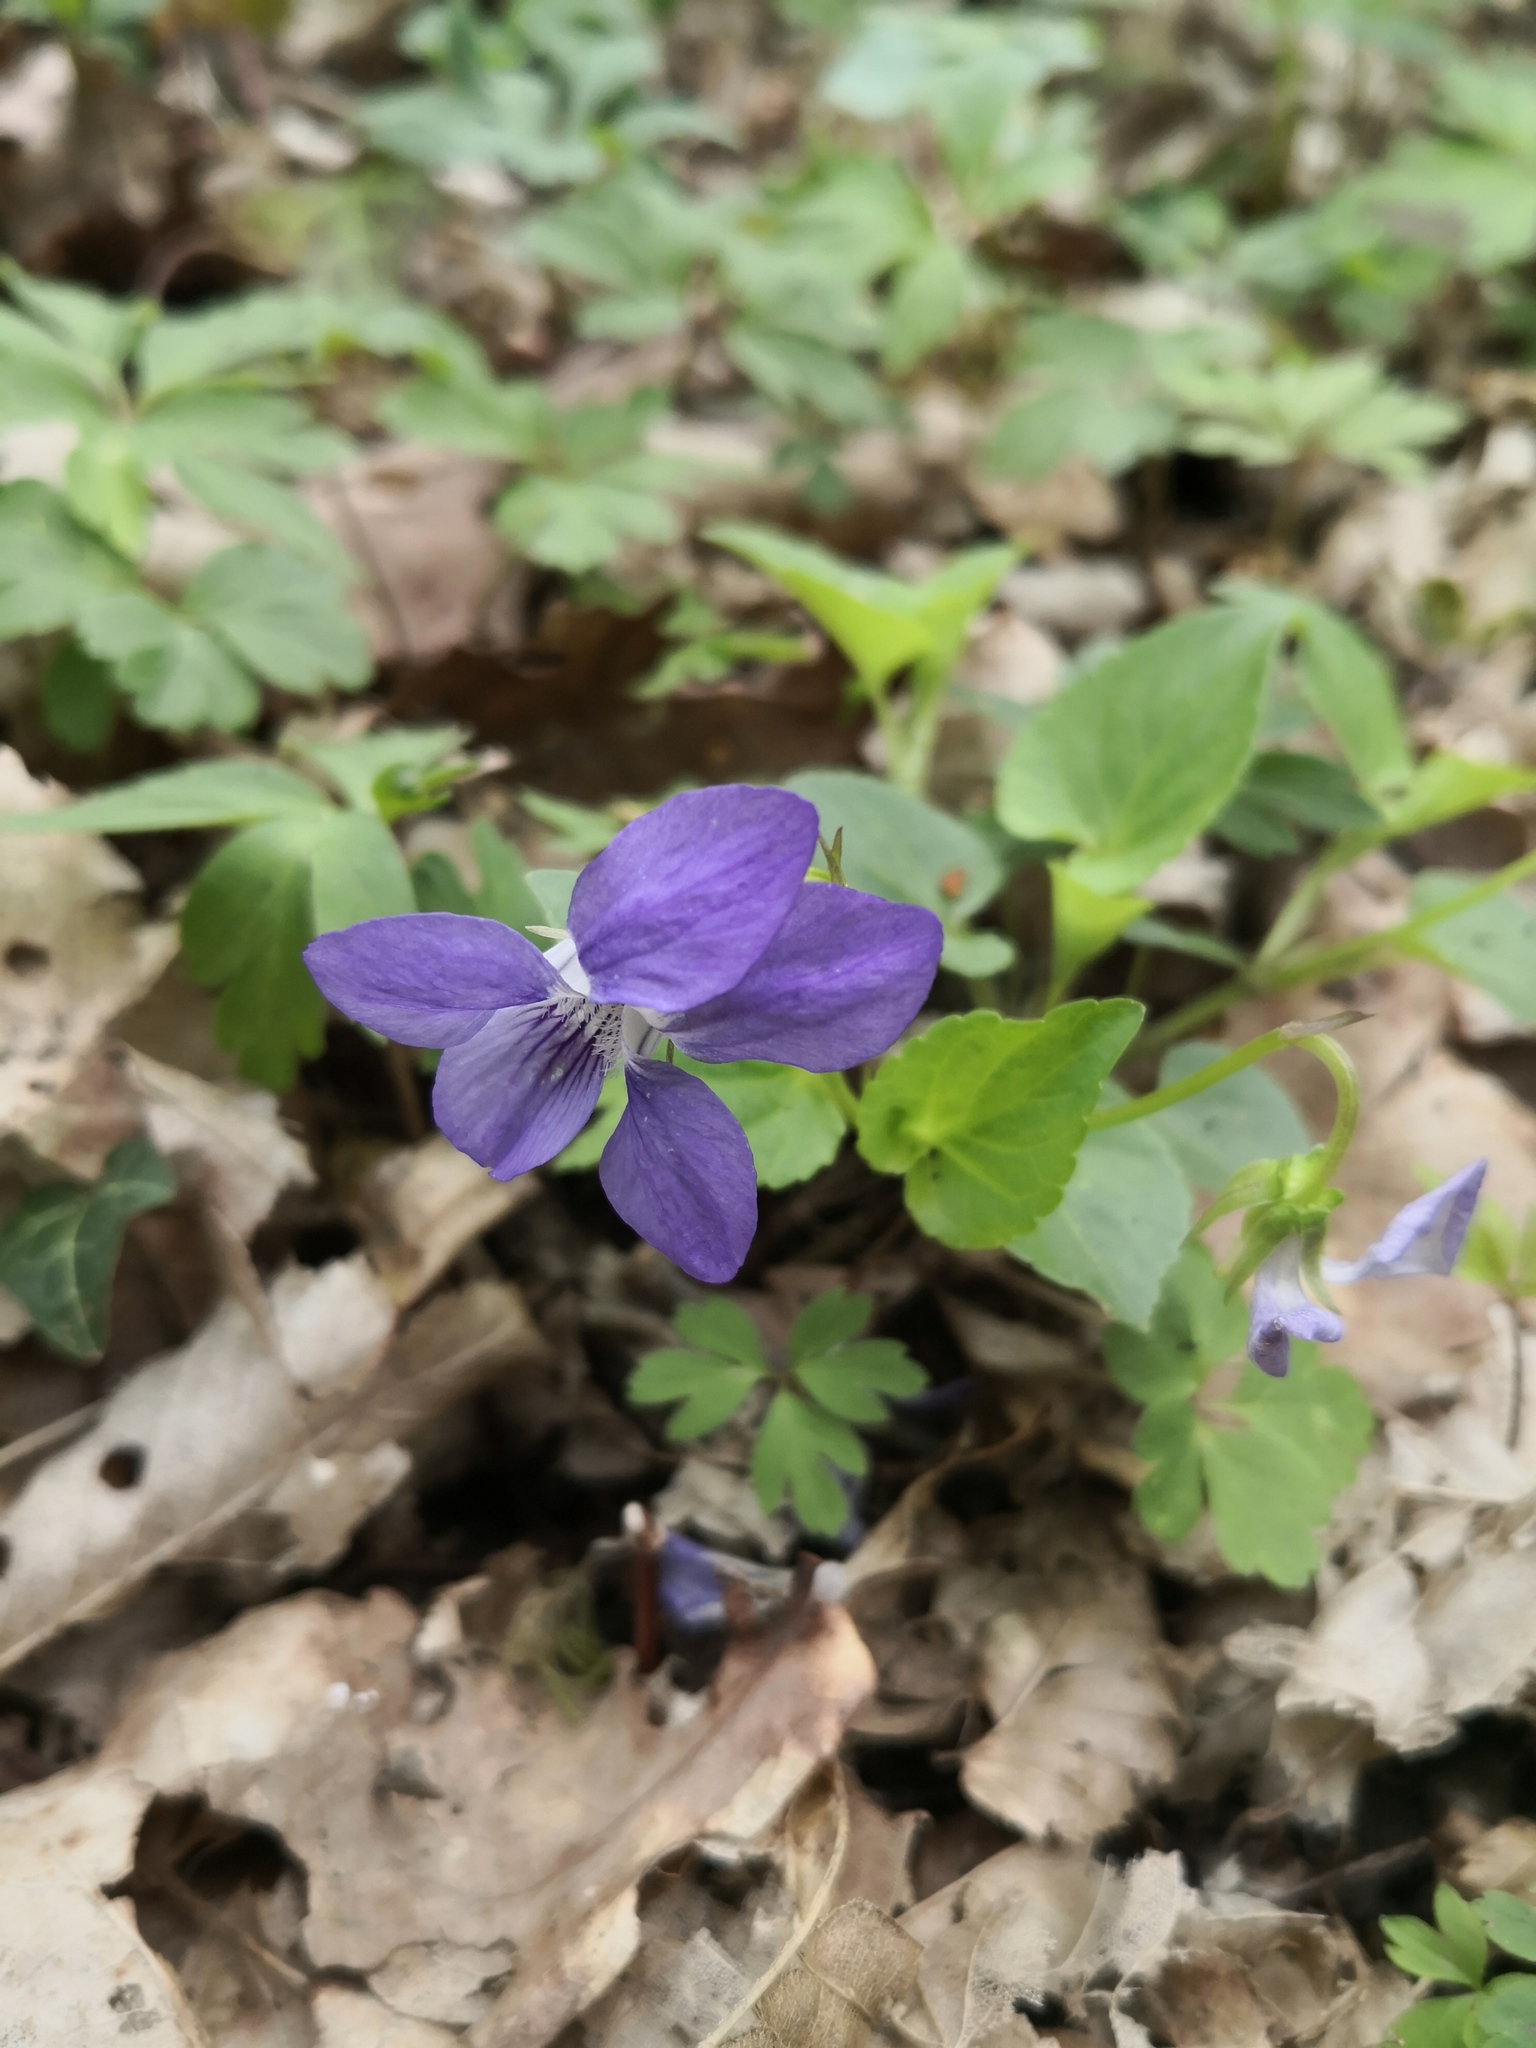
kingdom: Plantae
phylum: Tracheophyta
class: Magnoliopsida
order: Malpighiales
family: Violaceae
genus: Viola
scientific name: Viola reichenbachiana
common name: Early dog-violet
